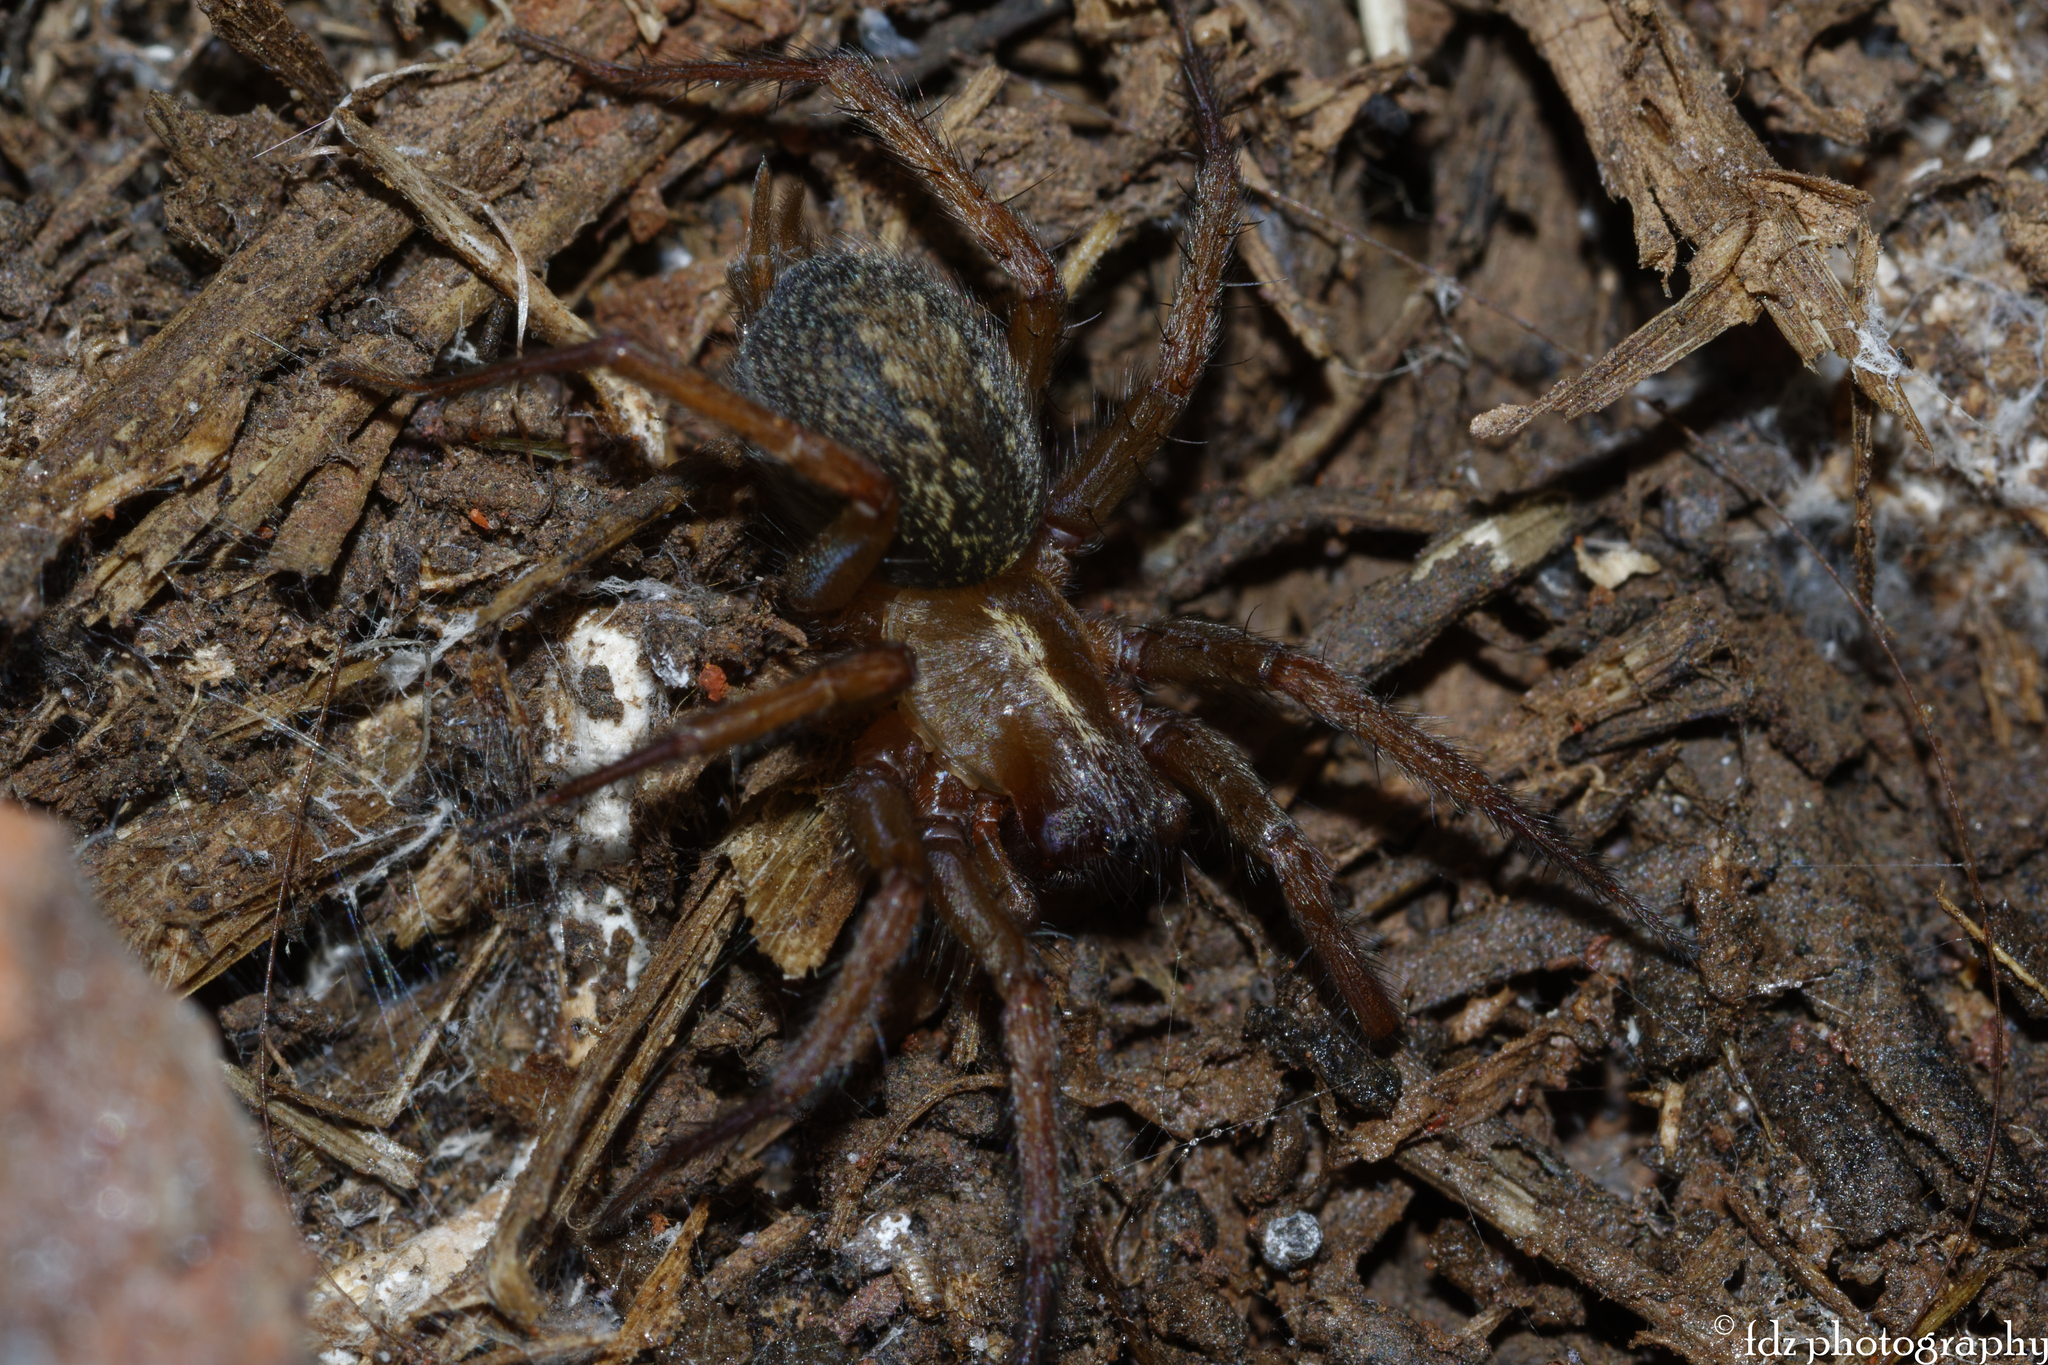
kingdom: Animalia
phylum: Arthropoda
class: Arachnida
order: Araneae
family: Agelenidae
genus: Lycosoides
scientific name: Lycosoides coarctata
